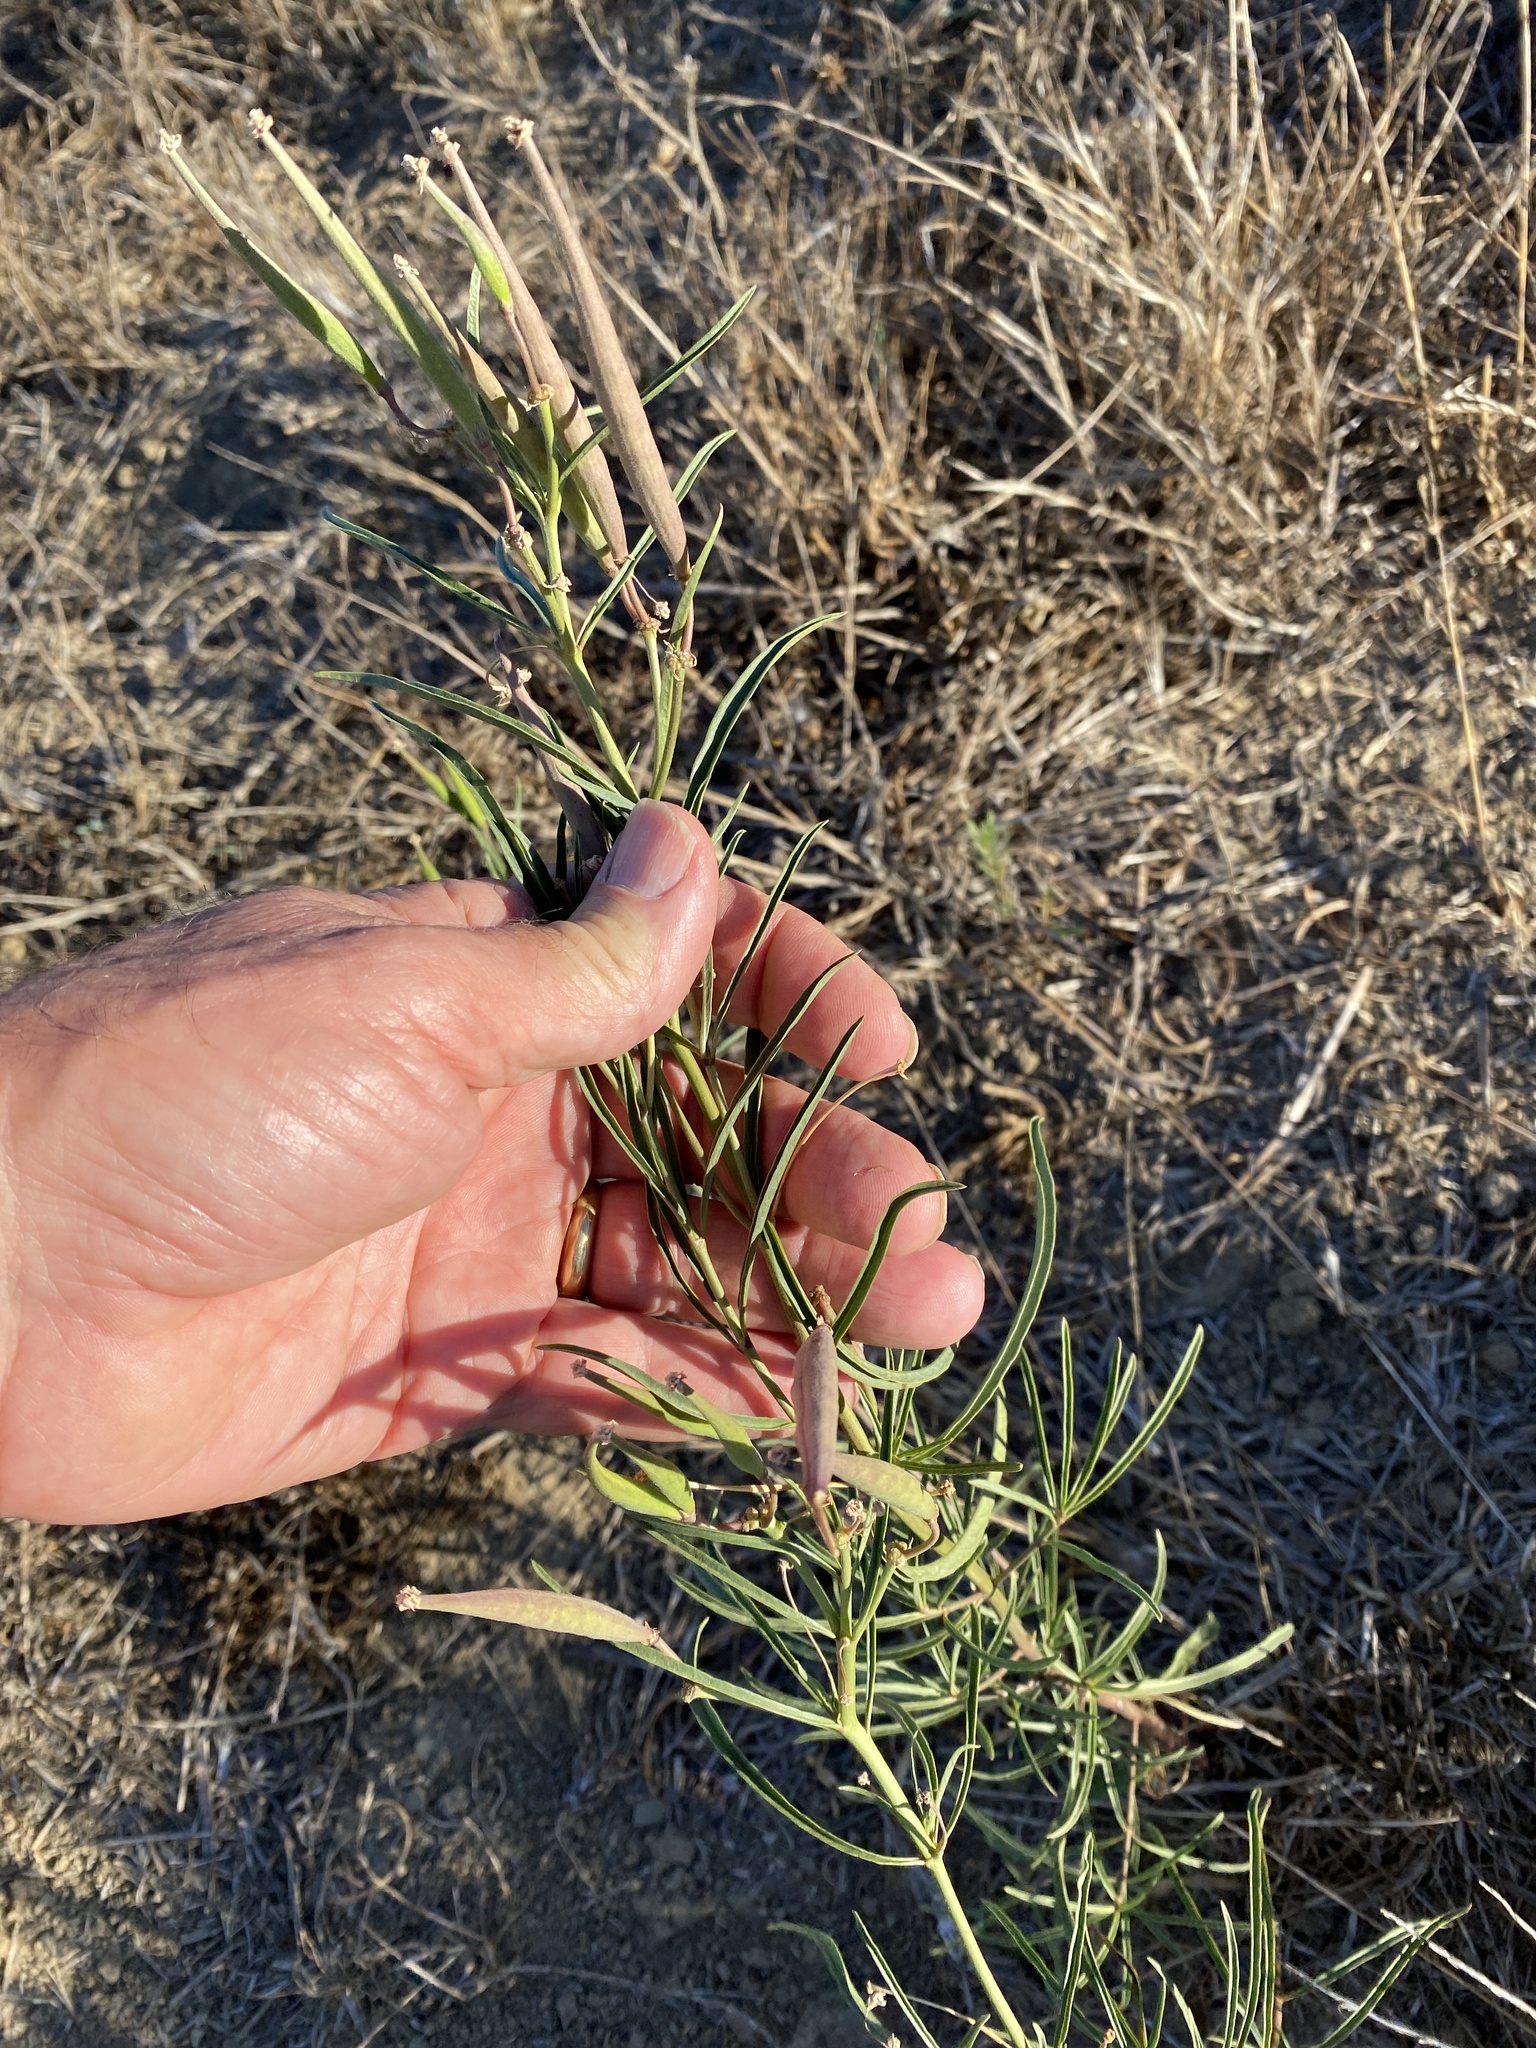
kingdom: Plantae
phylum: Tracheophyta
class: Magnoliopsida
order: Gentianales
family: Apocynaceae
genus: Asclepias
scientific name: Asclepias fascicularis
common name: Mexican milkweed
